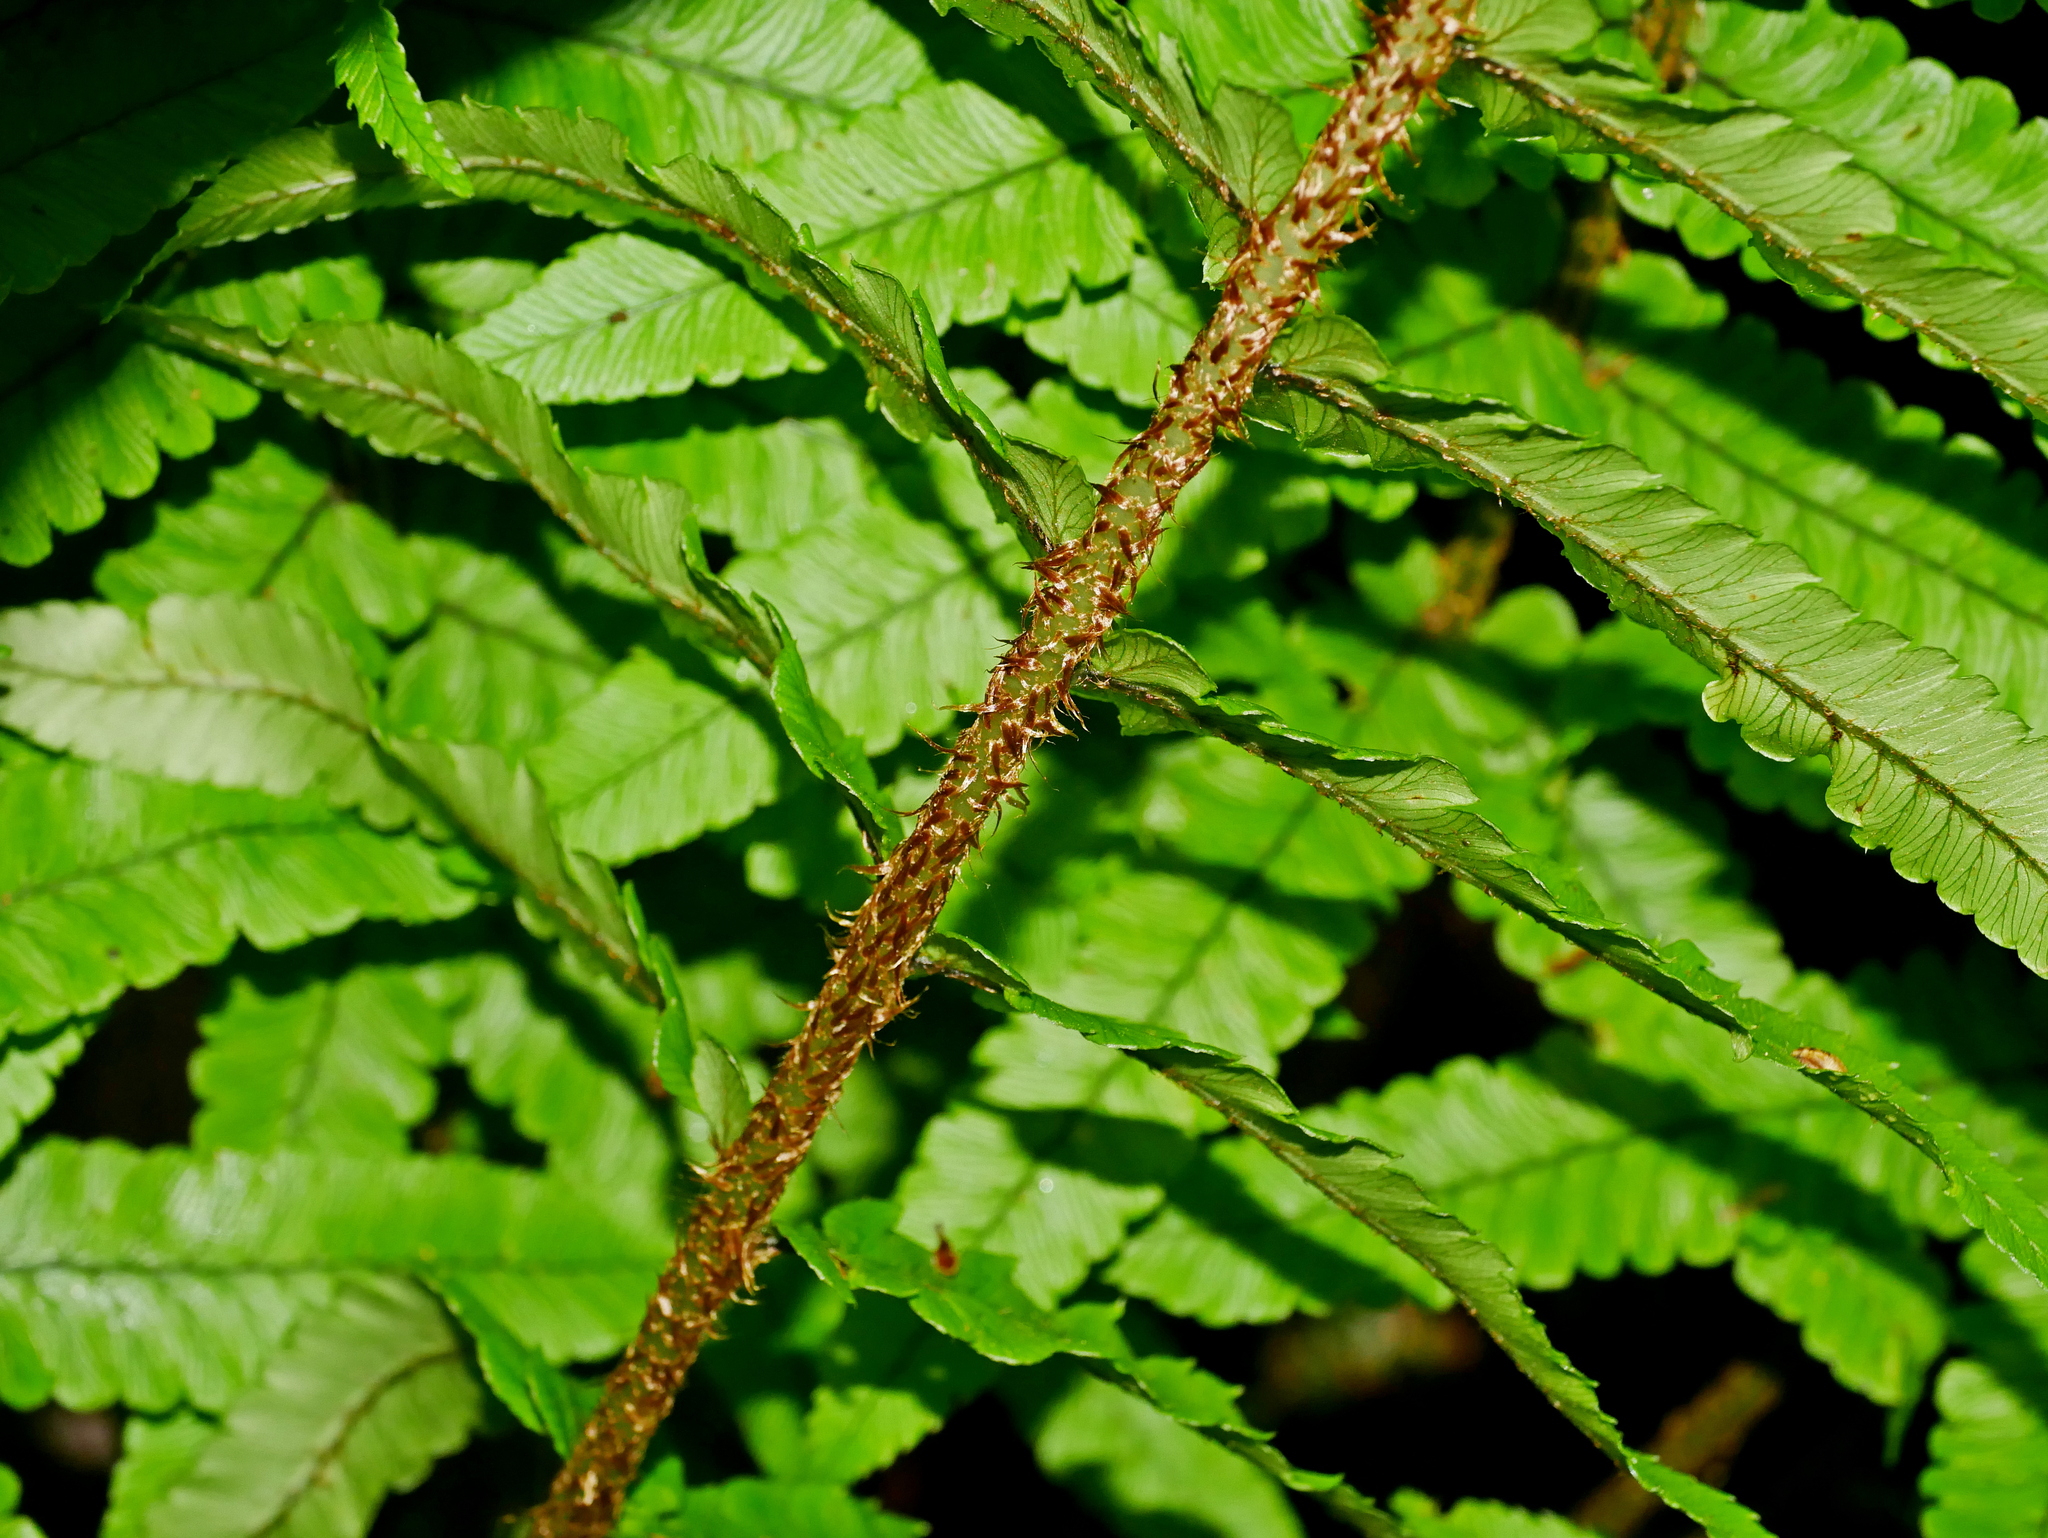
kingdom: Plantae
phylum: Tracheophyta
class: Polypodiopsida
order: Polypodiales
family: Dryopteridaceae
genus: Dryopteris
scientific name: Dryopteris dickinsii
